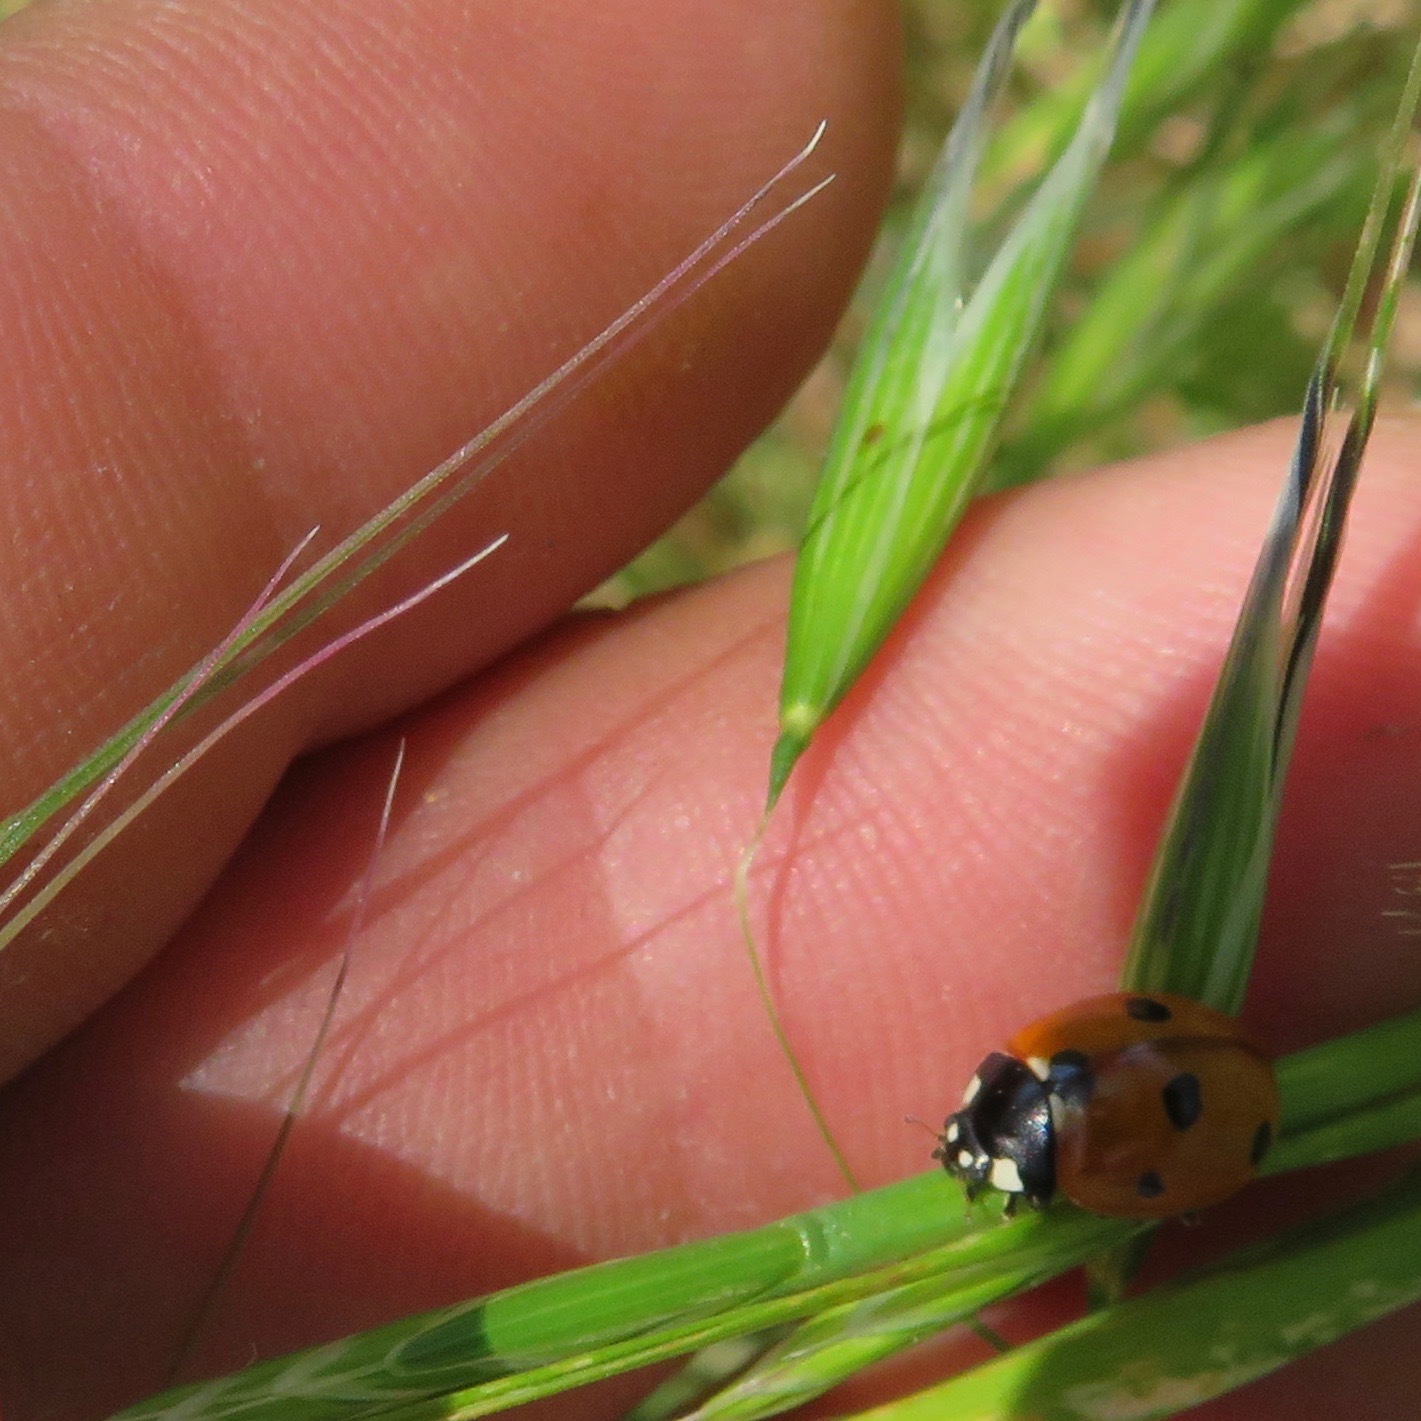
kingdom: Animalia
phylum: Arthropoda
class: Insecta
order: Coleoptera
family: Coccinellidae
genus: Coccinella
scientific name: Coccinella septempunctata
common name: Sevenspotted lady beetle
